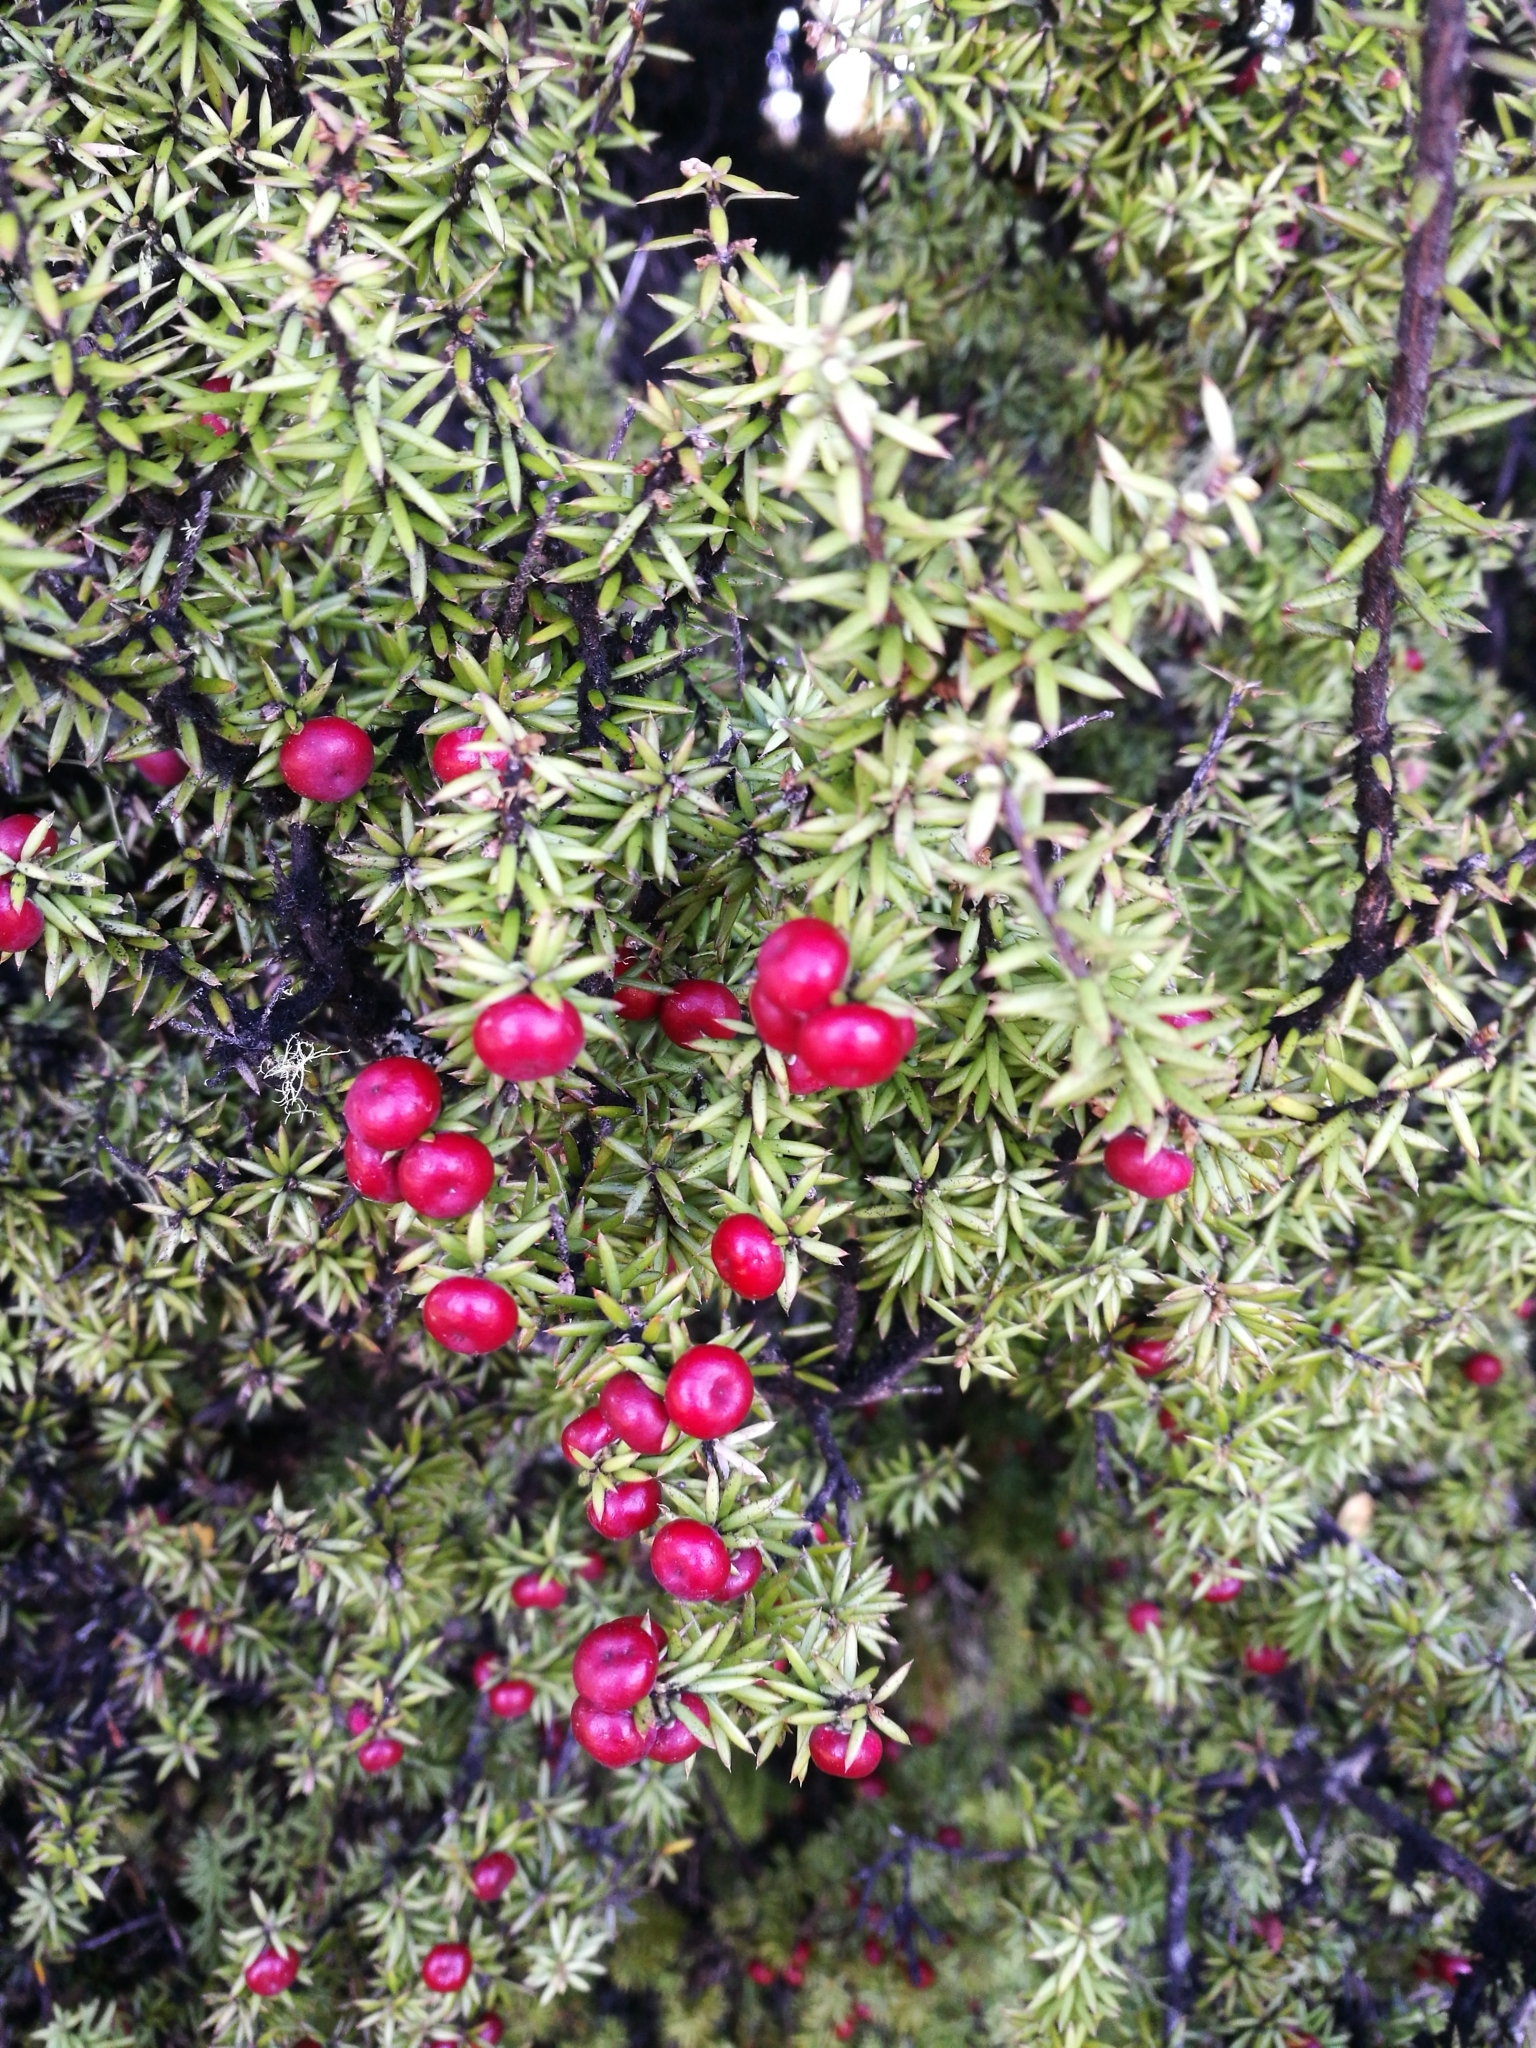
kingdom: Plantae
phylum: Tracheophyta
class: Magnoliopsida
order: Ericales
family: Ericaceae
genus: Leptecophylla
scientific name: Leptecophylla juniperina
